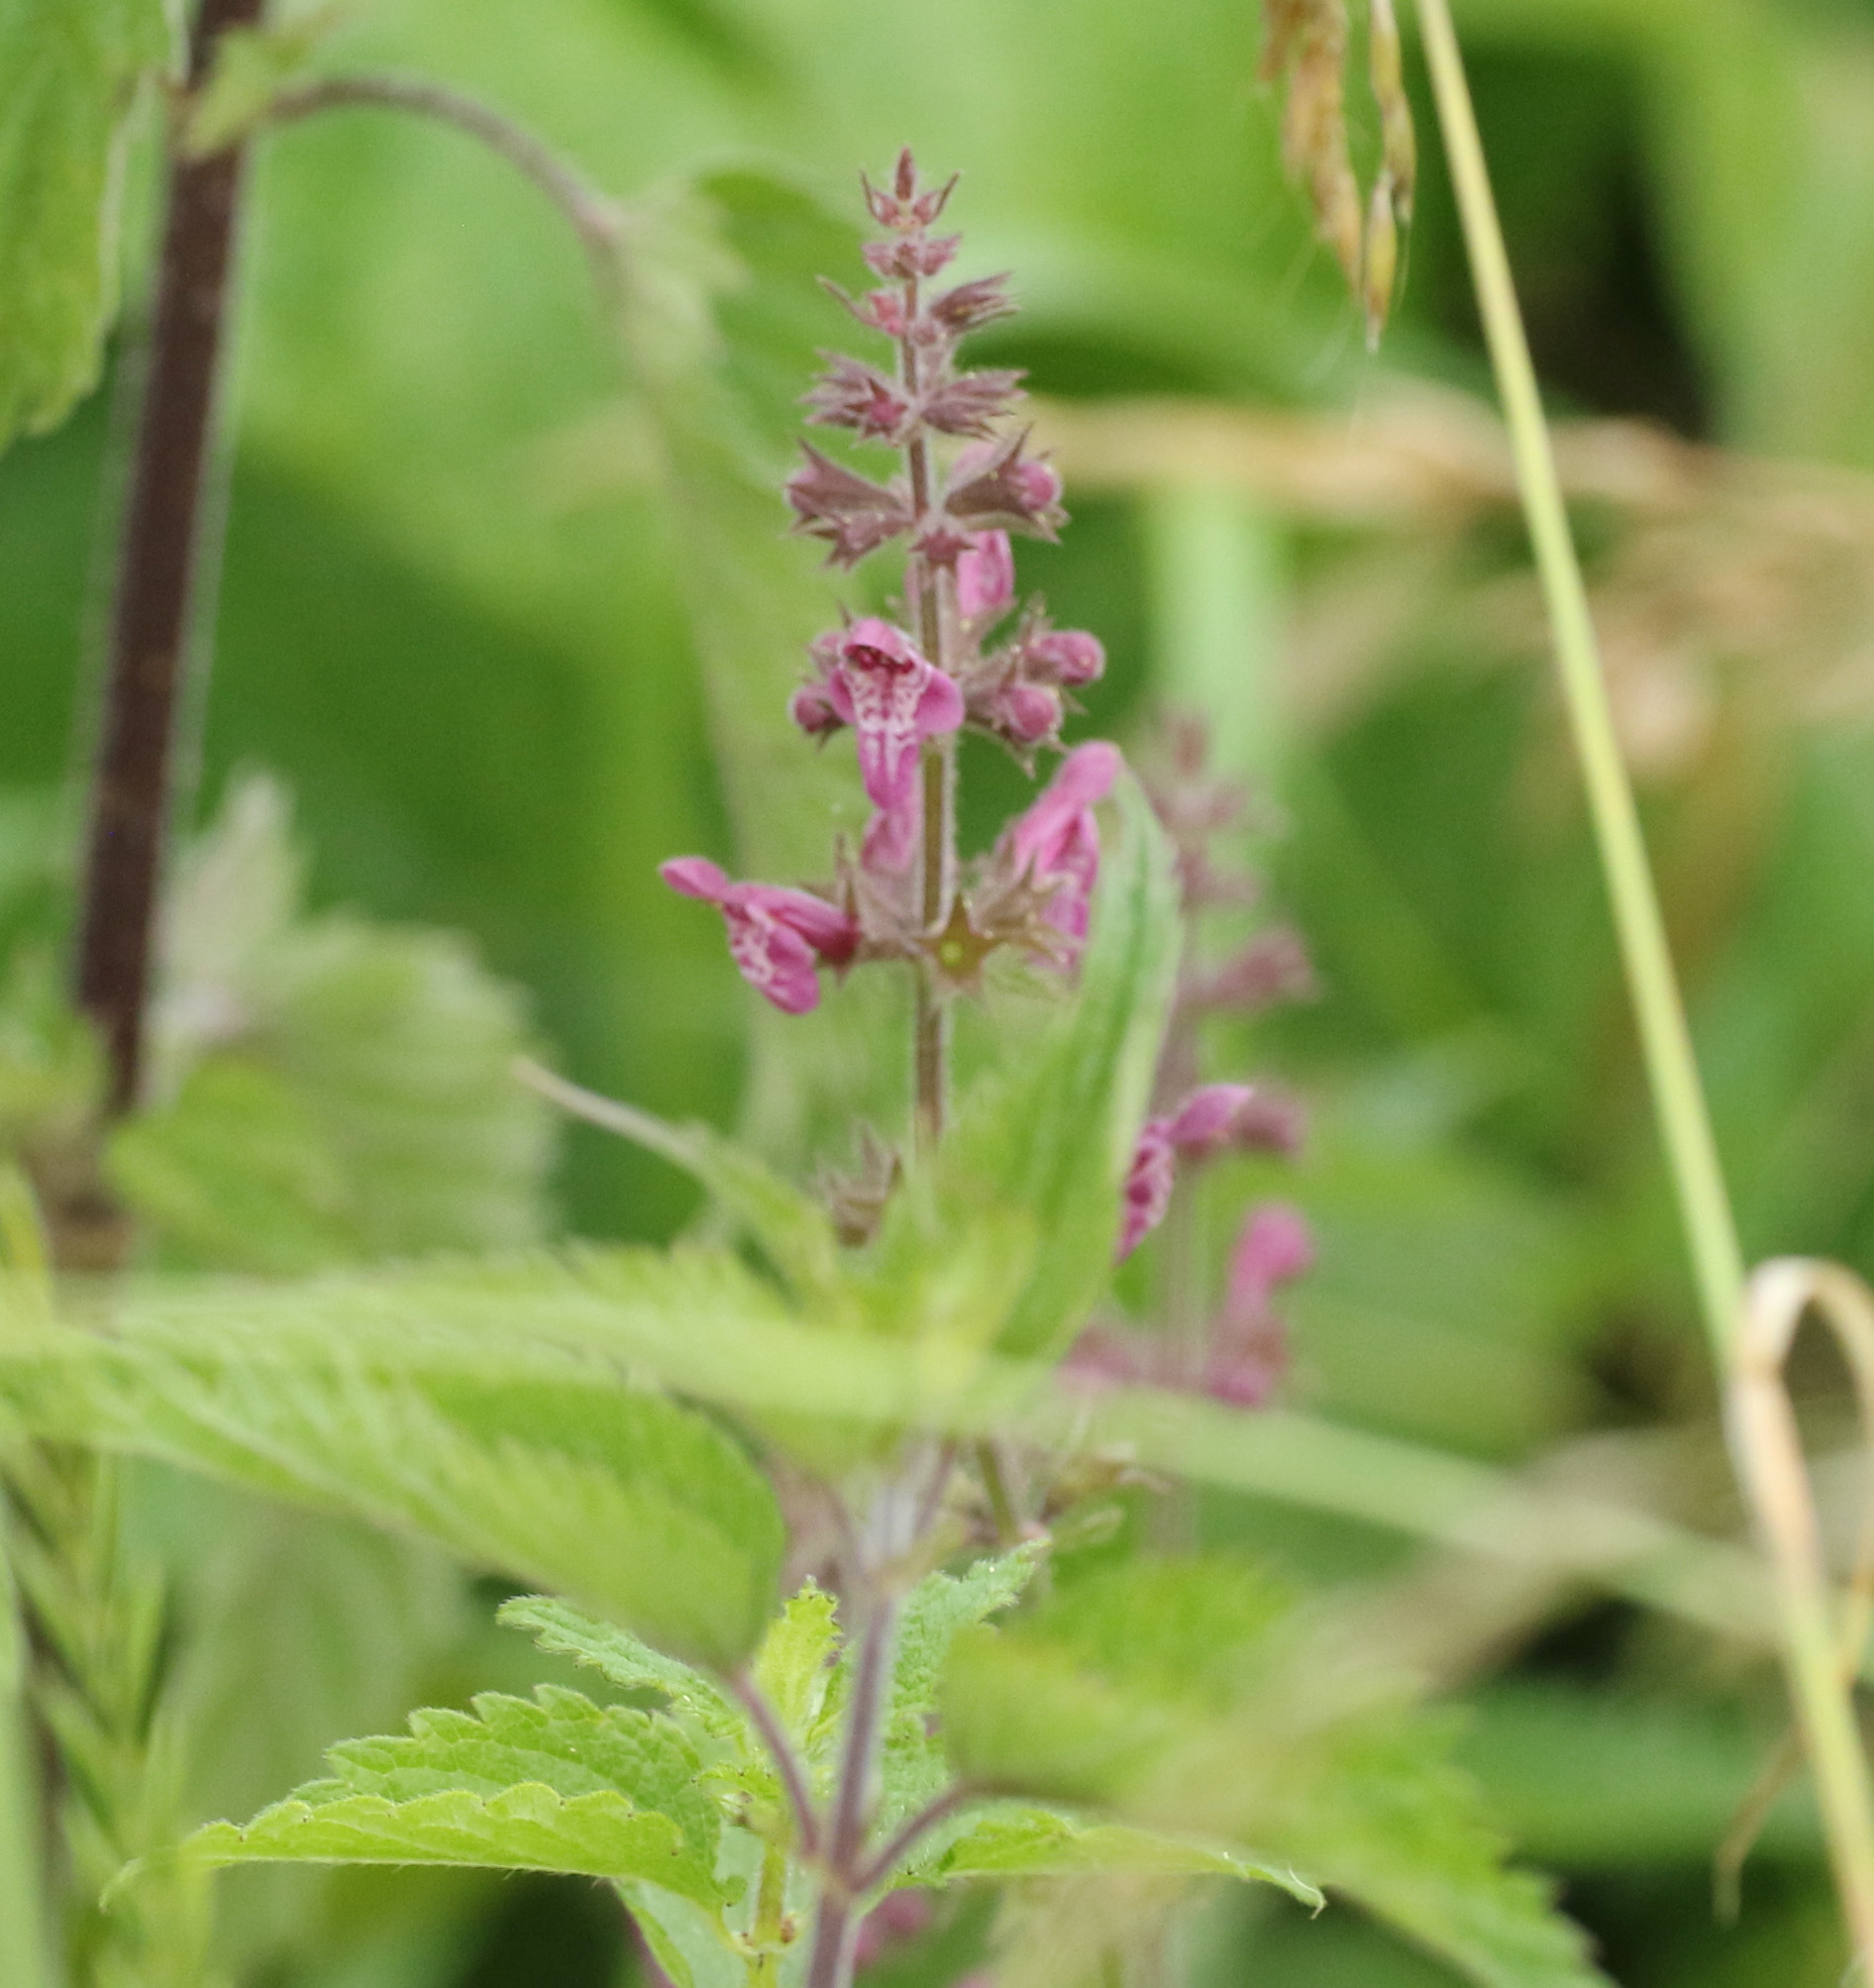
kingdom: Plantae
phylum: Tracheophyta
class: Magnoliopsida
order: Lamiales
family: Lamiaceae
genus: Stachys
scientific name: Stachys sylvatica
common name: Hedge woundwort
